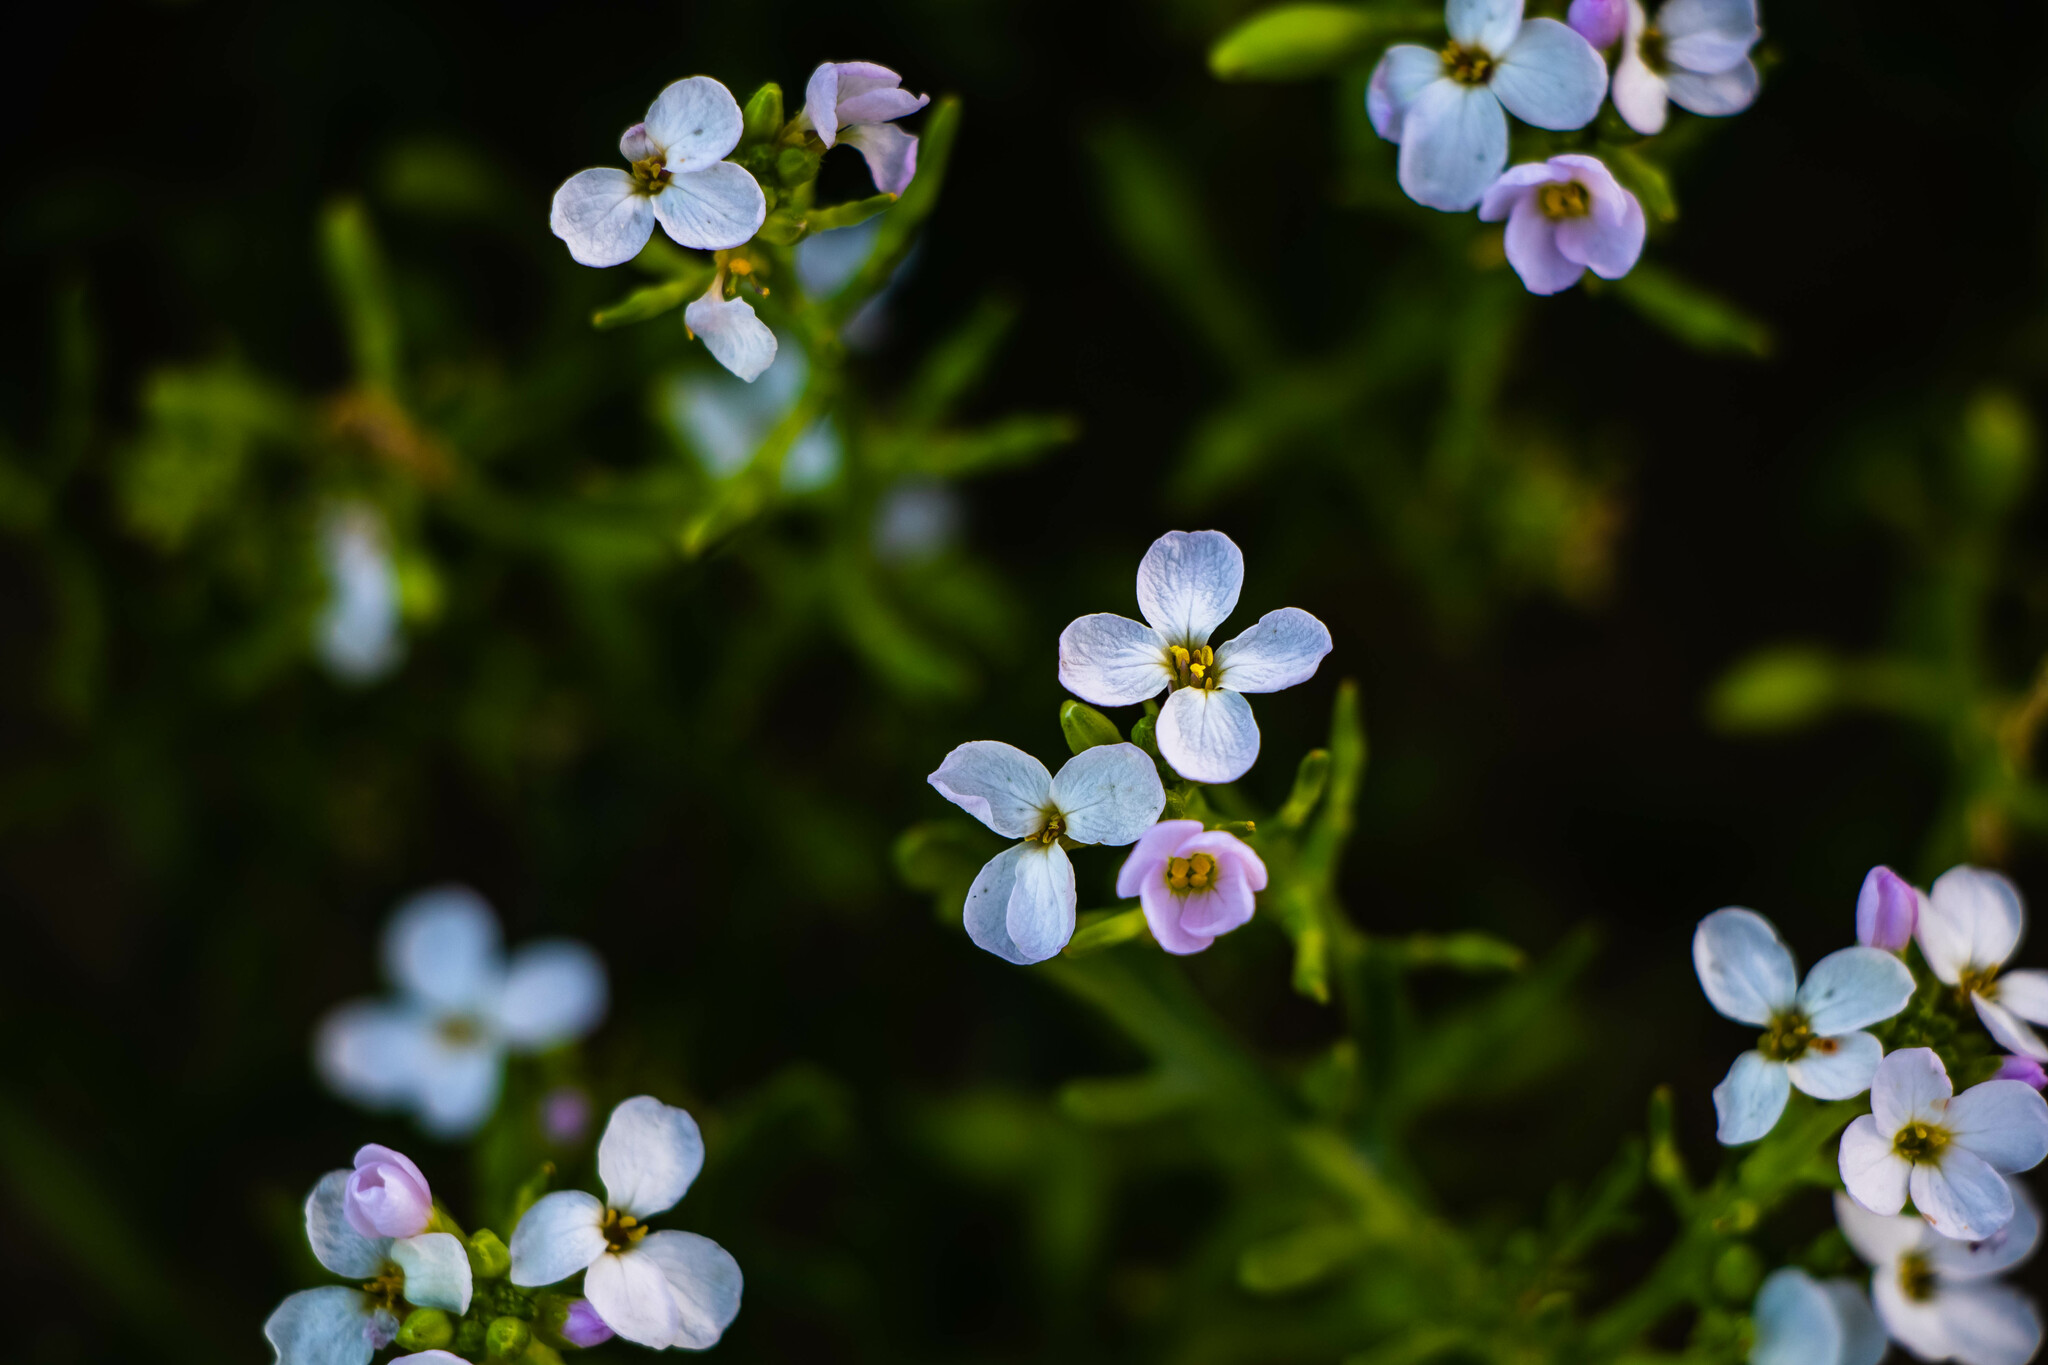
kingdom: Plantae
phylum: Tracheophyta
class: Magnoliopsida
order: Brassicales
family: Brassicaceae
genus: Cakile
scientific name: Cakile maritima
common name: Sea rocket
